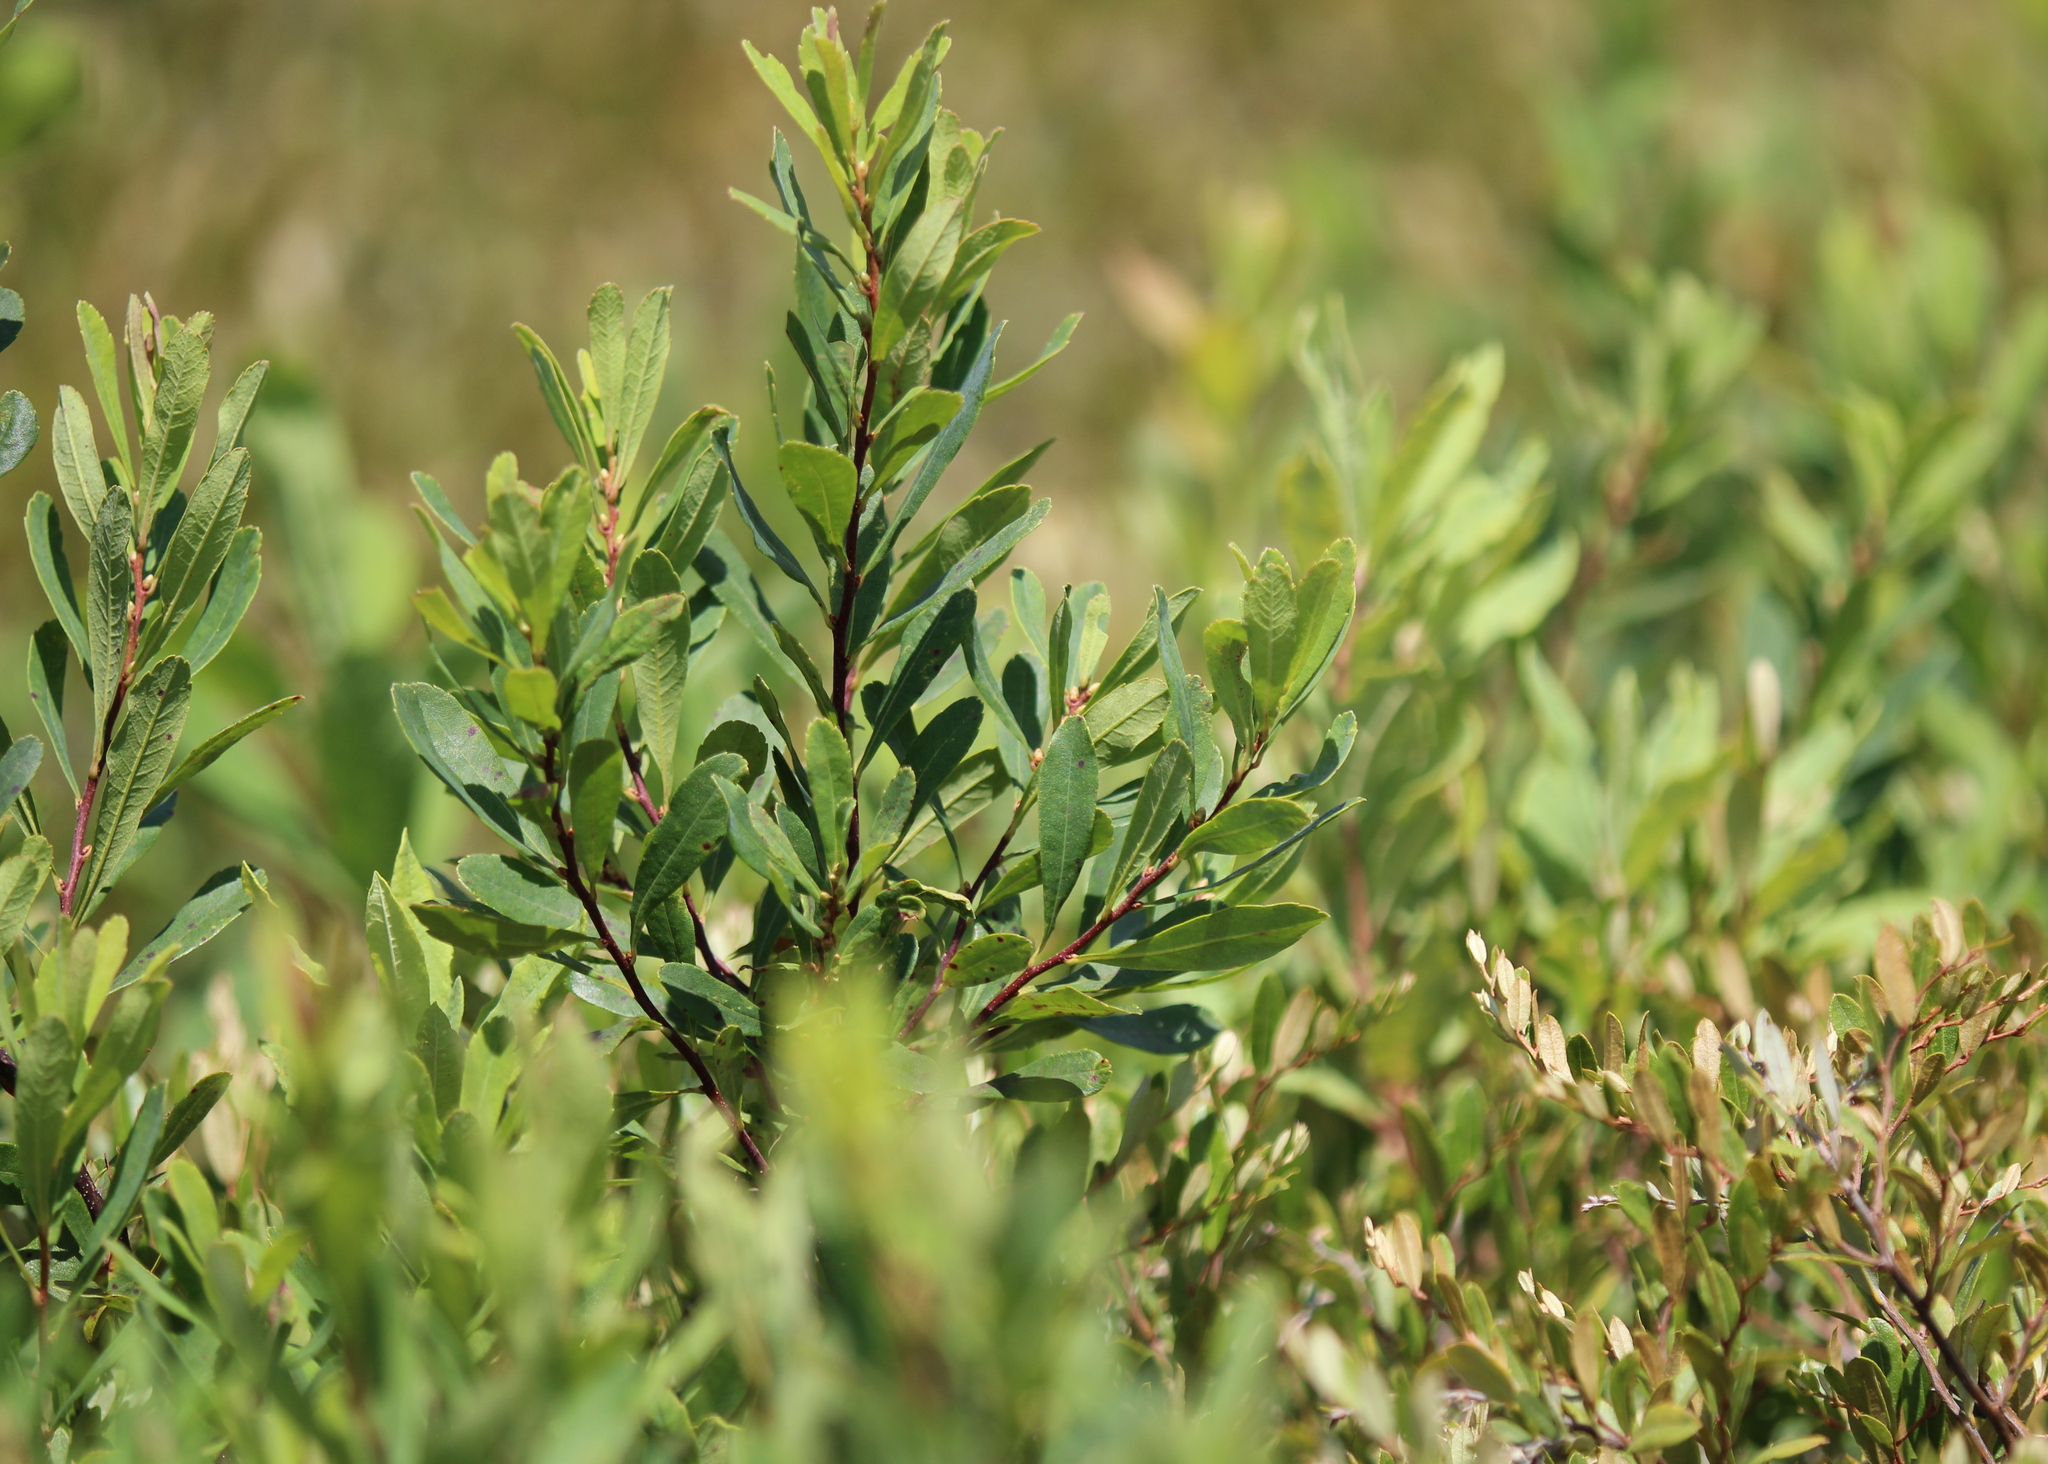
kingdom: Plantae
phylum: Tracheophyta
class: Magnoliopsida
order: Fagales
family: Myricaceae
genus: Myrica
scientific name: Myrica gale
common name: Sweet gale
